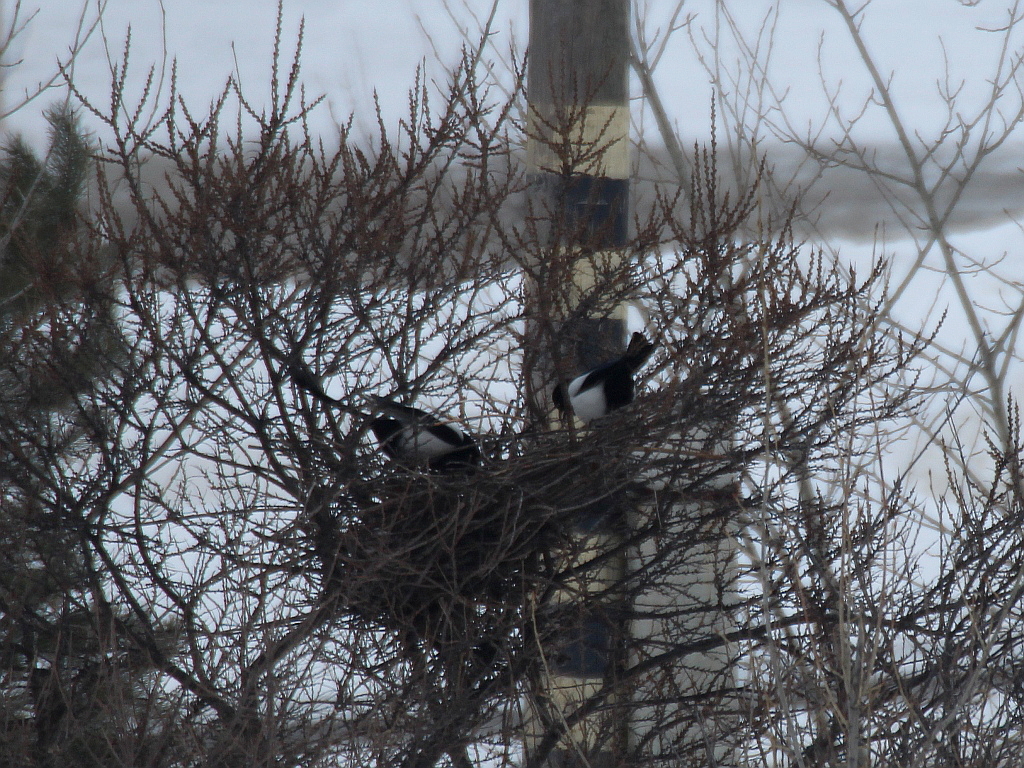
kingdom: Animalia
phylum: Chordata
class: Aves
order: Passeriformes
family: Corvidae
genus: Pica
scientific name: Pica pica
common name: Eurasian magpie
